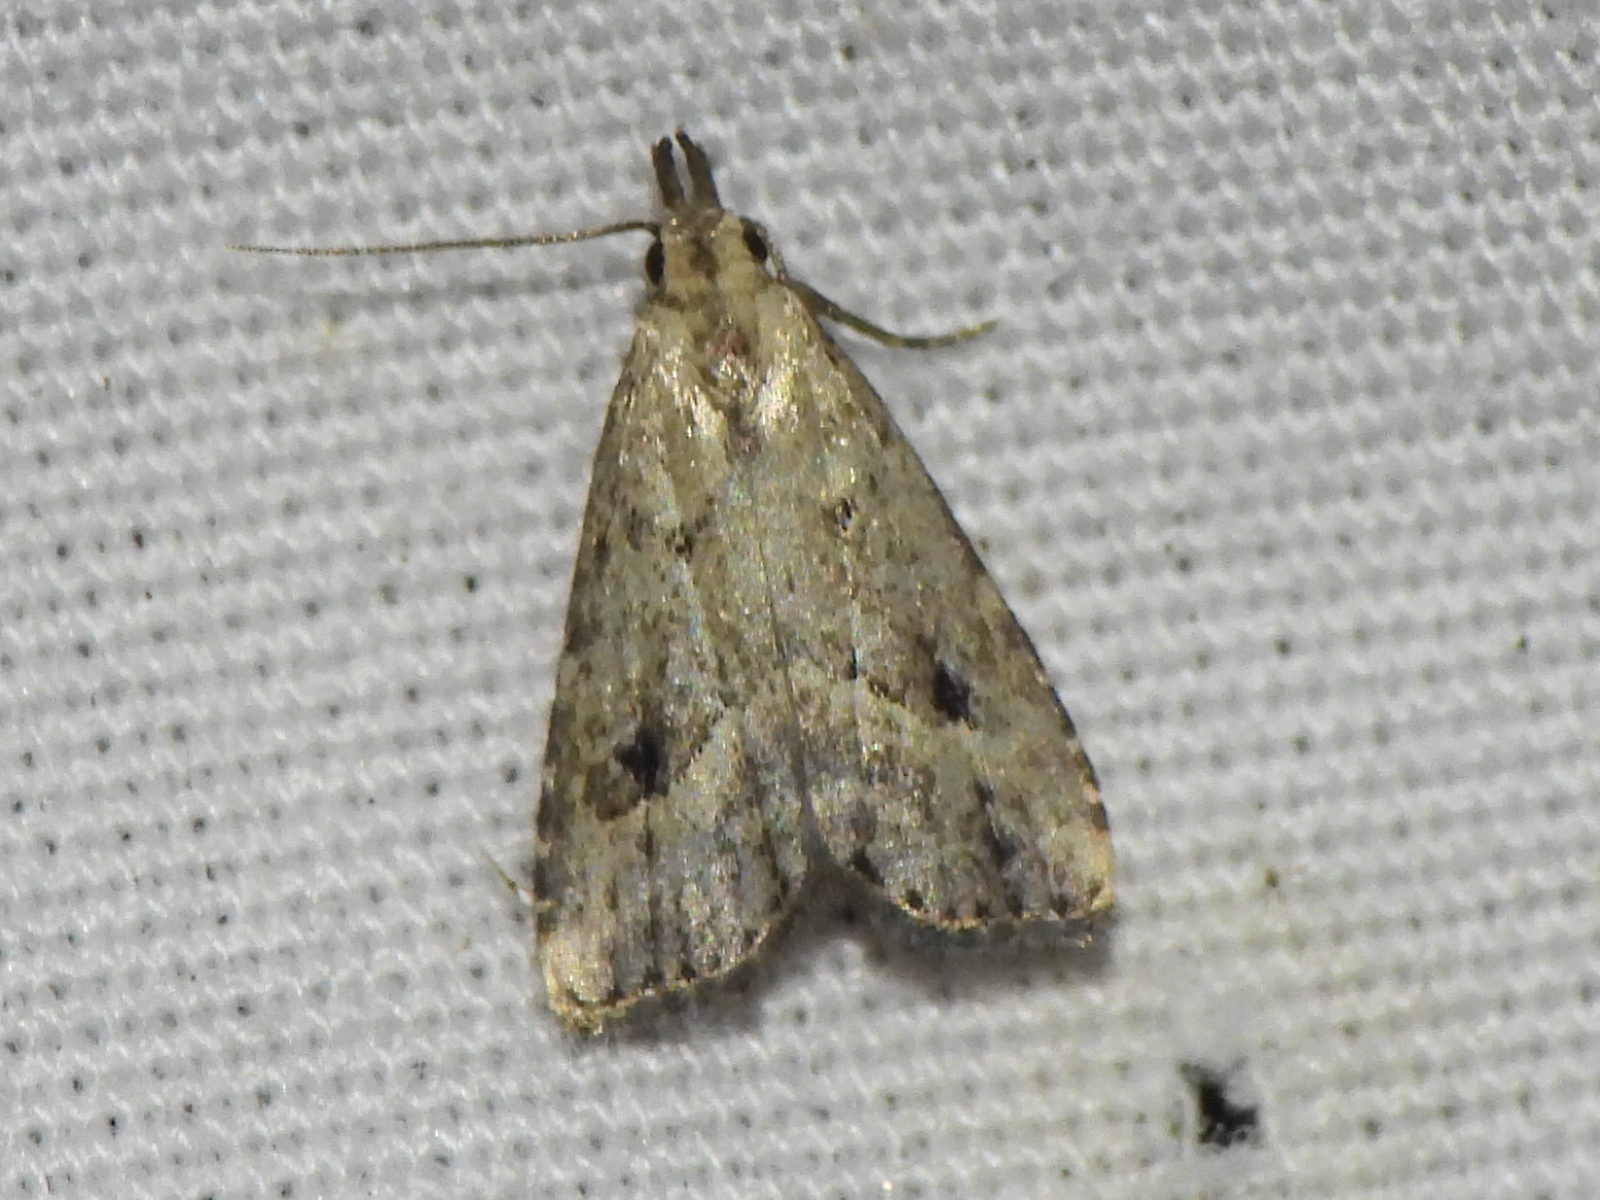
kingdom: Animalia
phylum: Arthropoda
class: Insecta
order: Lepidoptera
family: Erebidae
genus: Schrankia
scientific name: Schrankia
